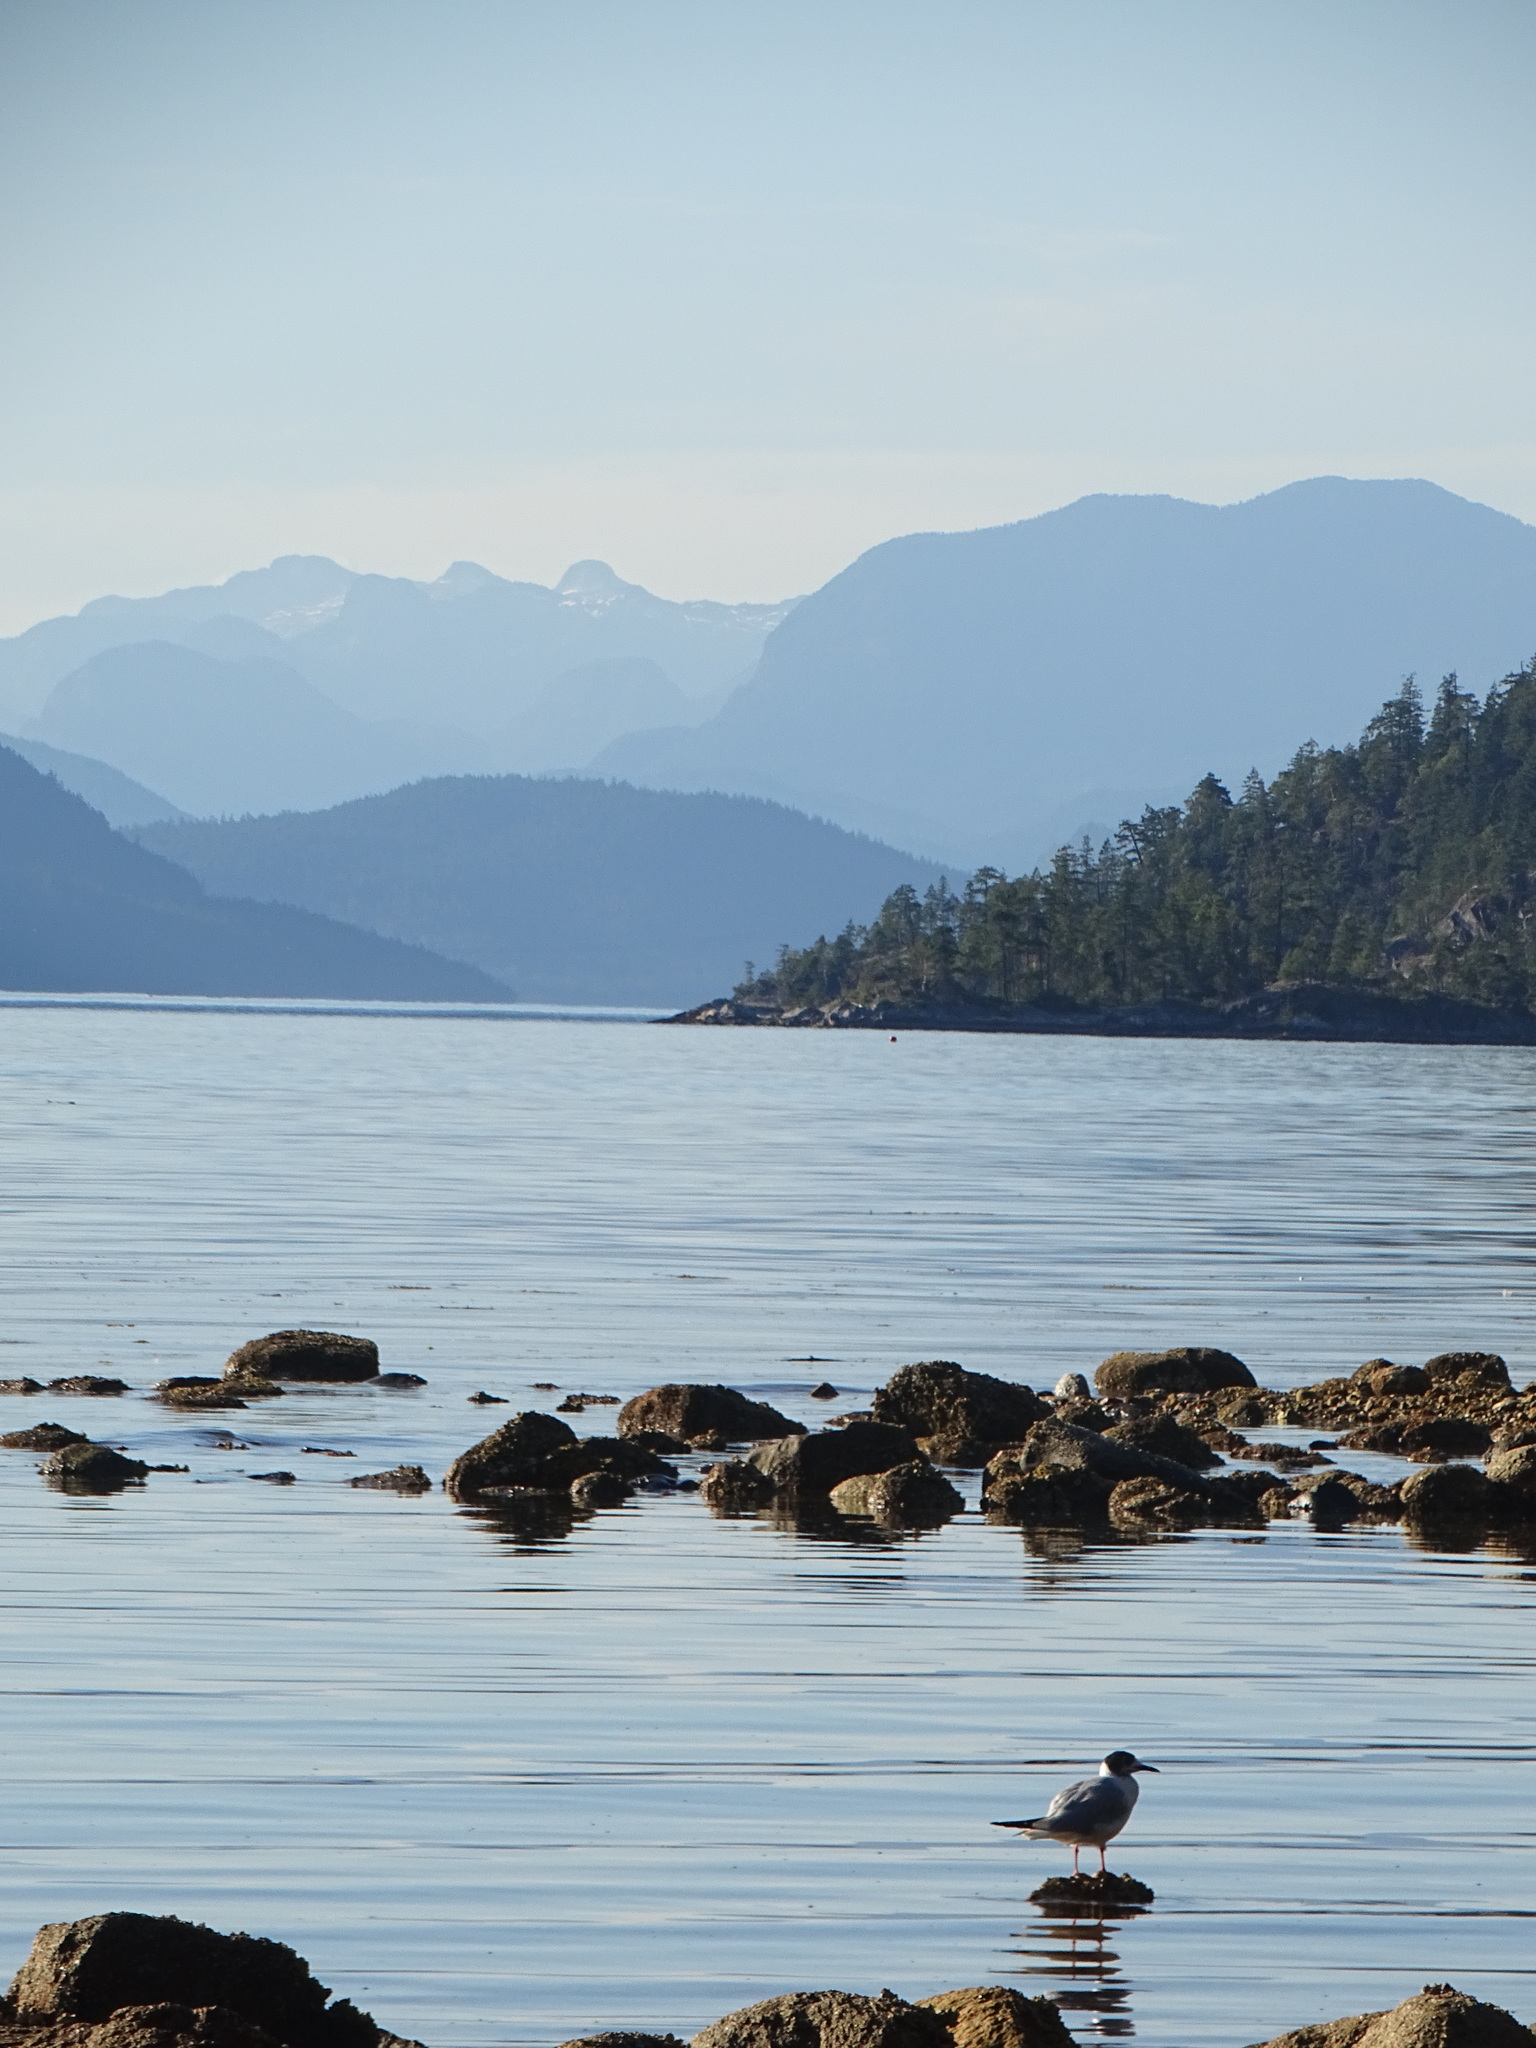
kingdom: Animalia
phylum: Chordata
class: Aves
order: Charadriiformes
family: Laridae
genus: Chroicocephalus
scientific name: Chroicocephalus philadelphia
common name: Bonaparte's gull
